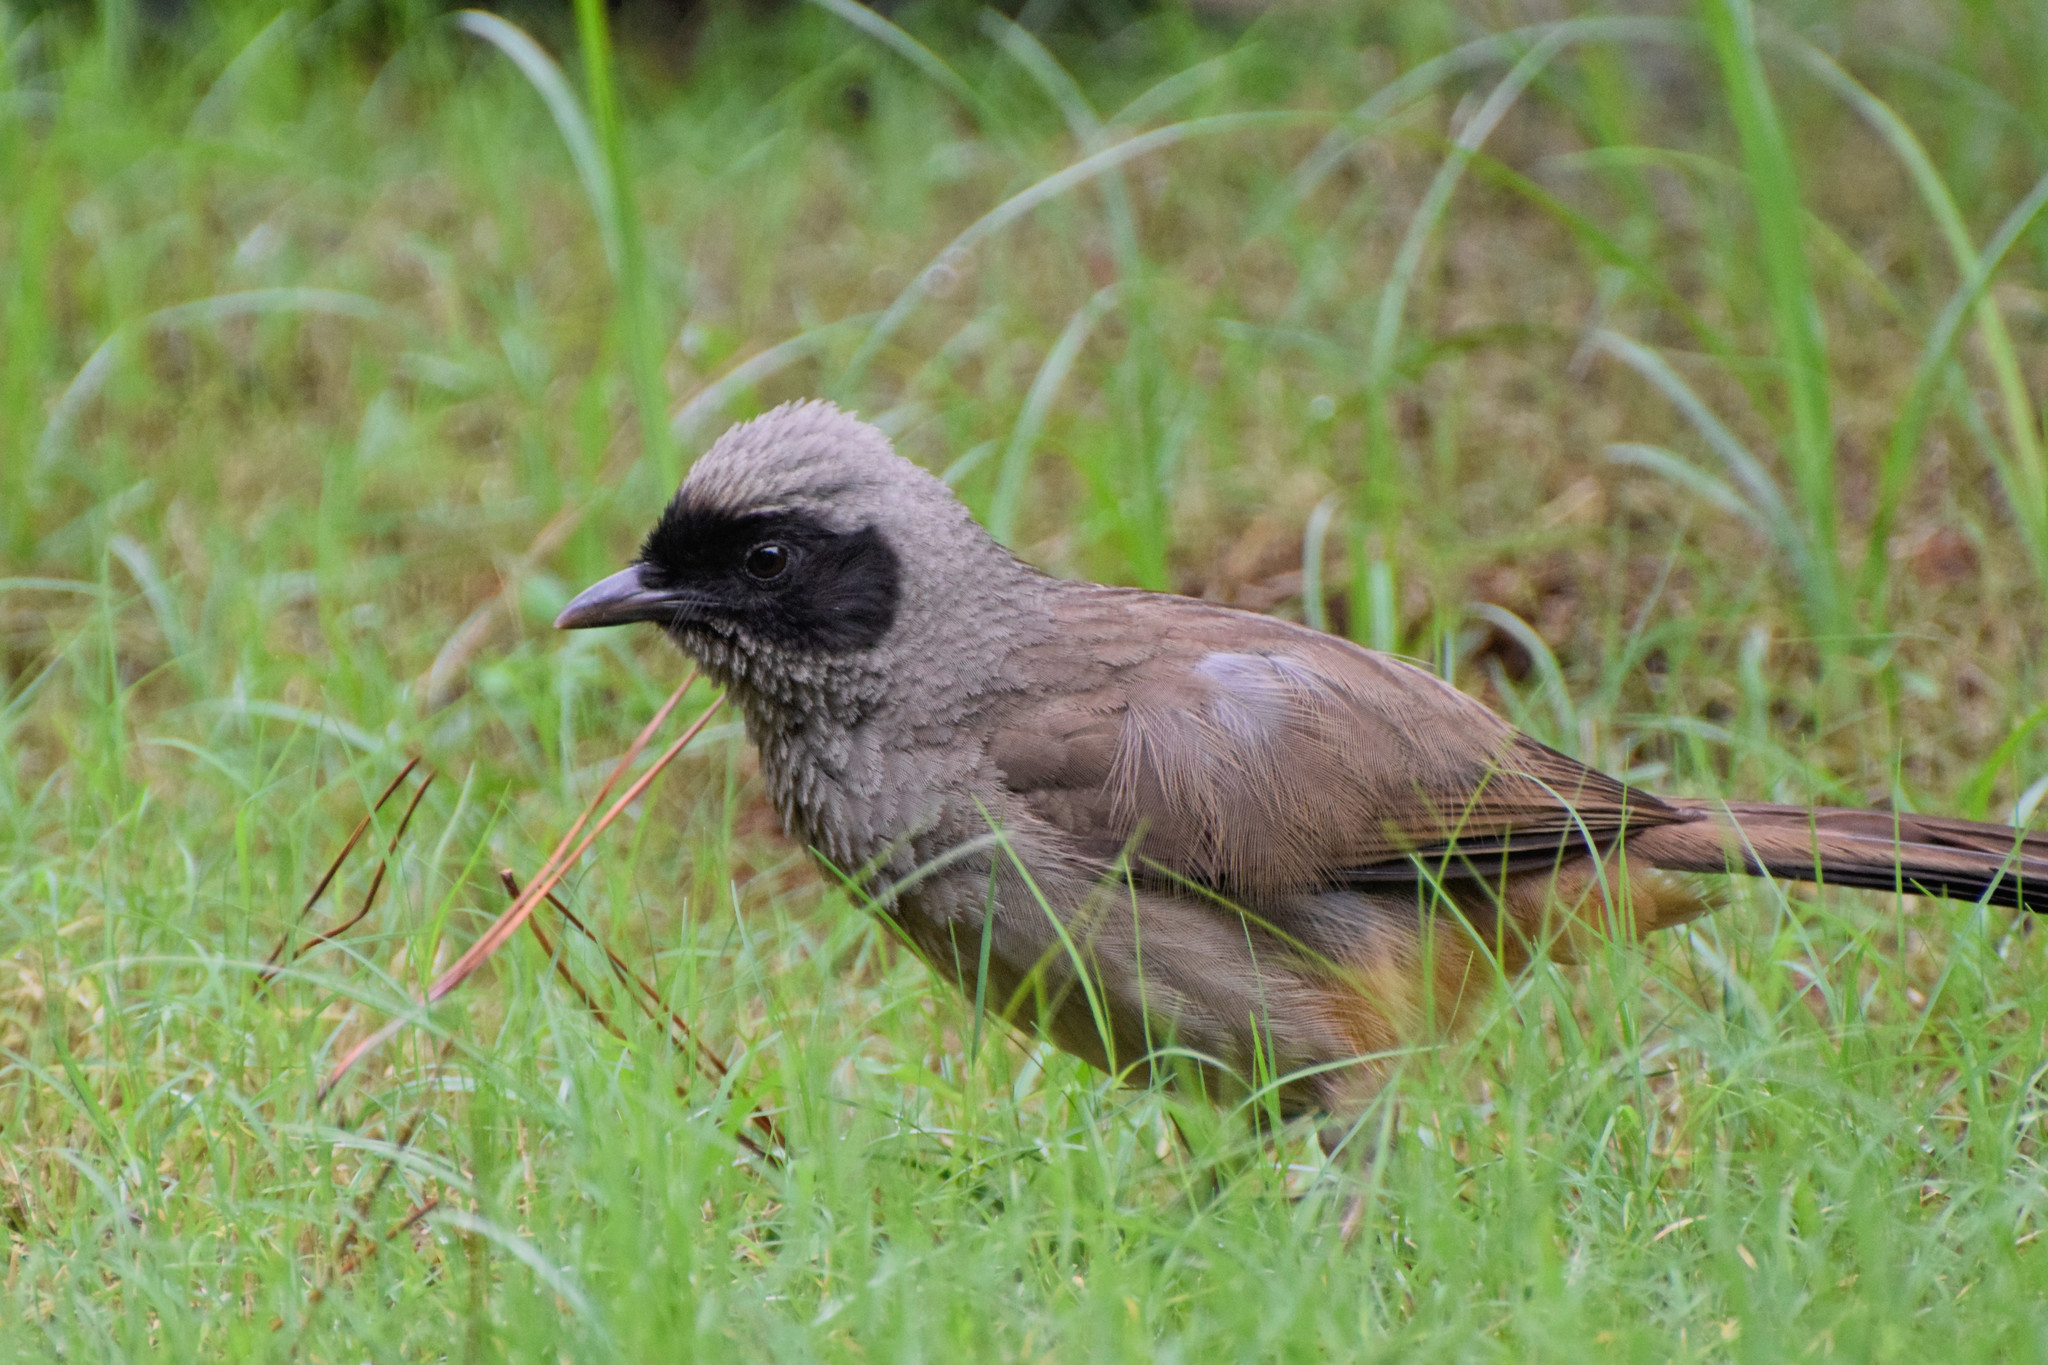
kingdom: Animalia
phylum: Chordata
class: Aves
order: Passeriformes
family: Leiothrichidae
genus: Garrulax
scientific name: Garrulax perspicillatus
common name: Masked laughingthrush
